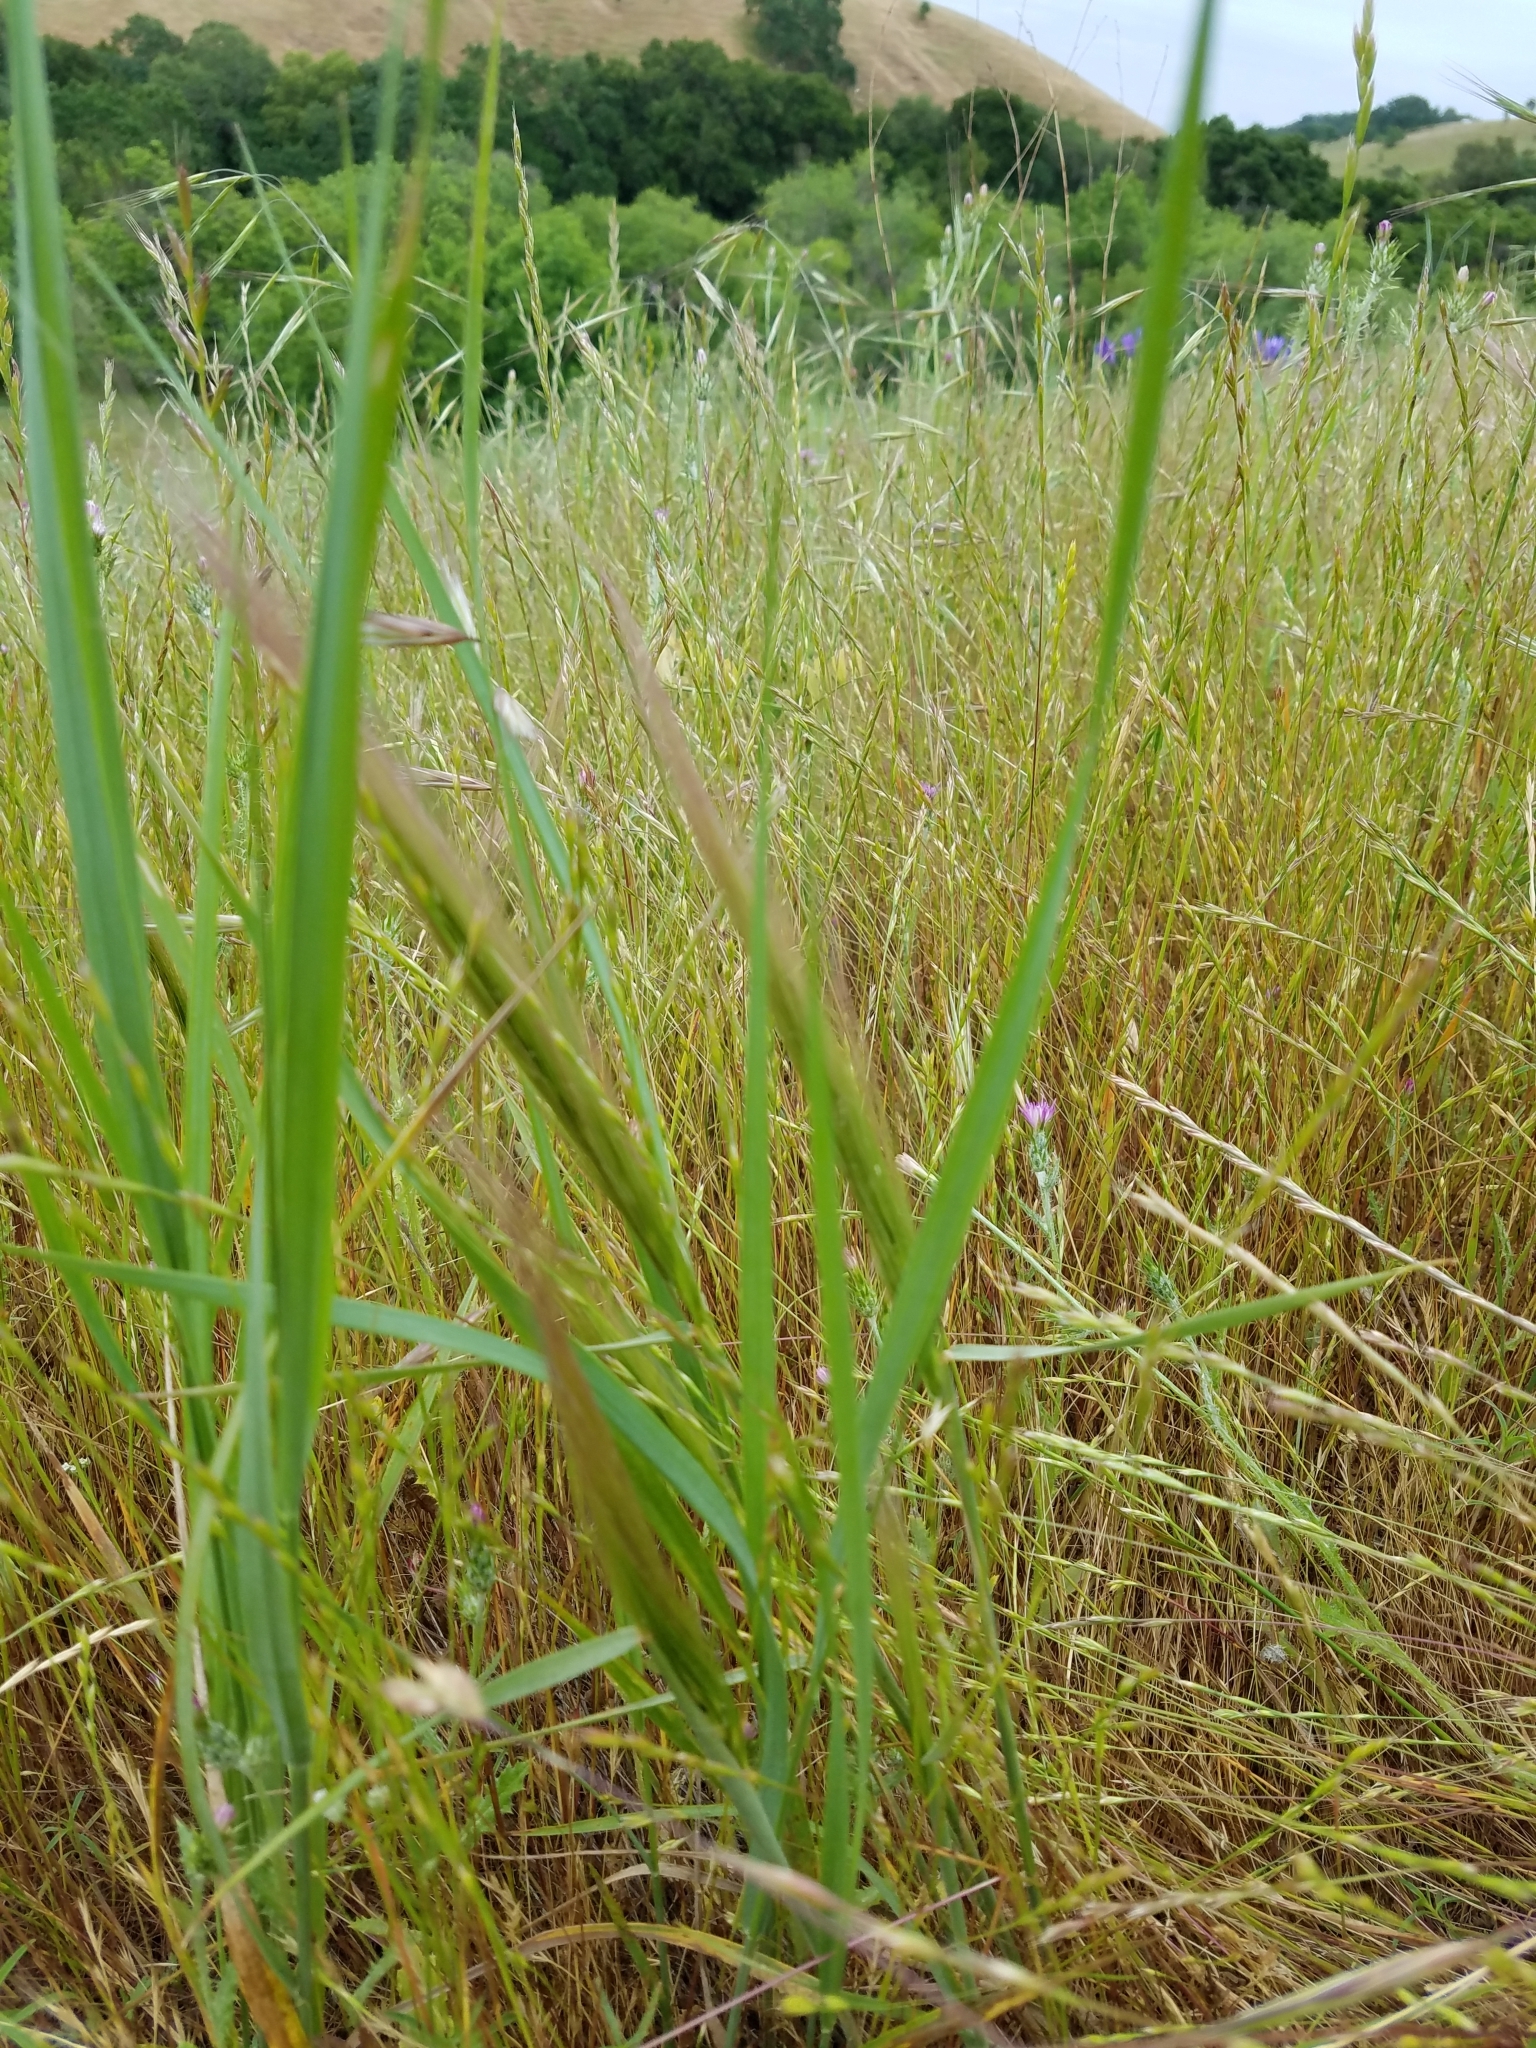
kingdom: Plantae
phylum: Tracheophyta
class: Liliopsida
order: Poales
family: Poaceae
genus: Elymus
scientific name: Elymus multisetus
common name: Big squirreltail
